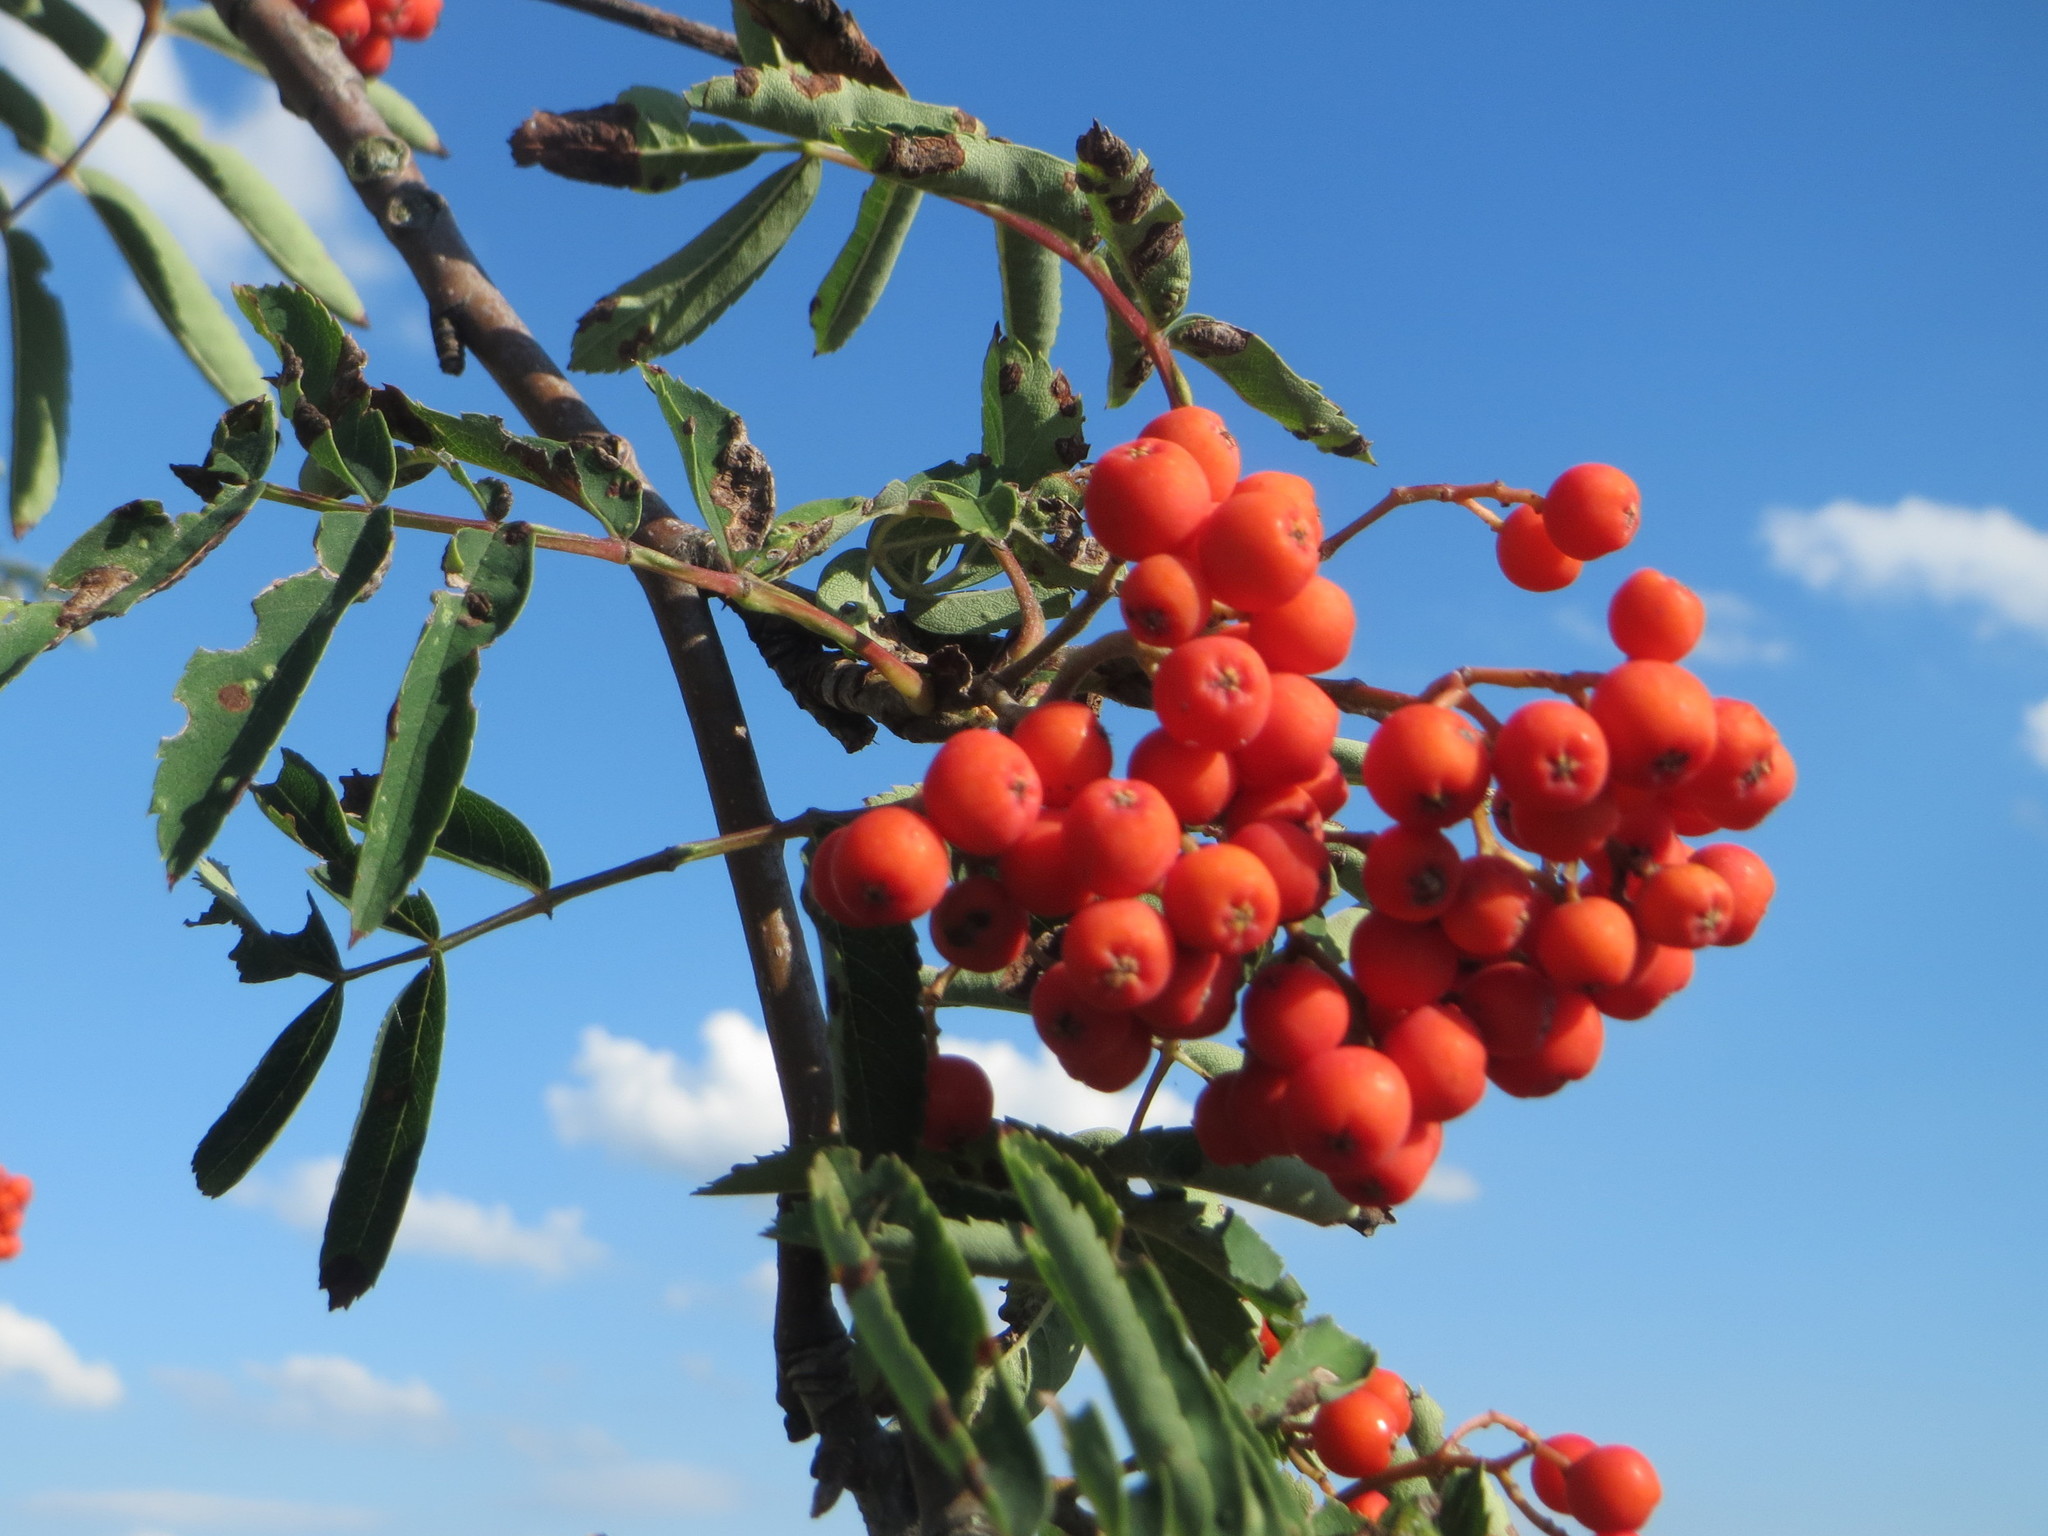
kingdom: Plantae
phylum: Tracheophyta
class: Magnoliopsida
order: Rosales
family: Rosaceae
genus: Sorbus
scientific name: Sorbus aucuparia
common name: Rowan
